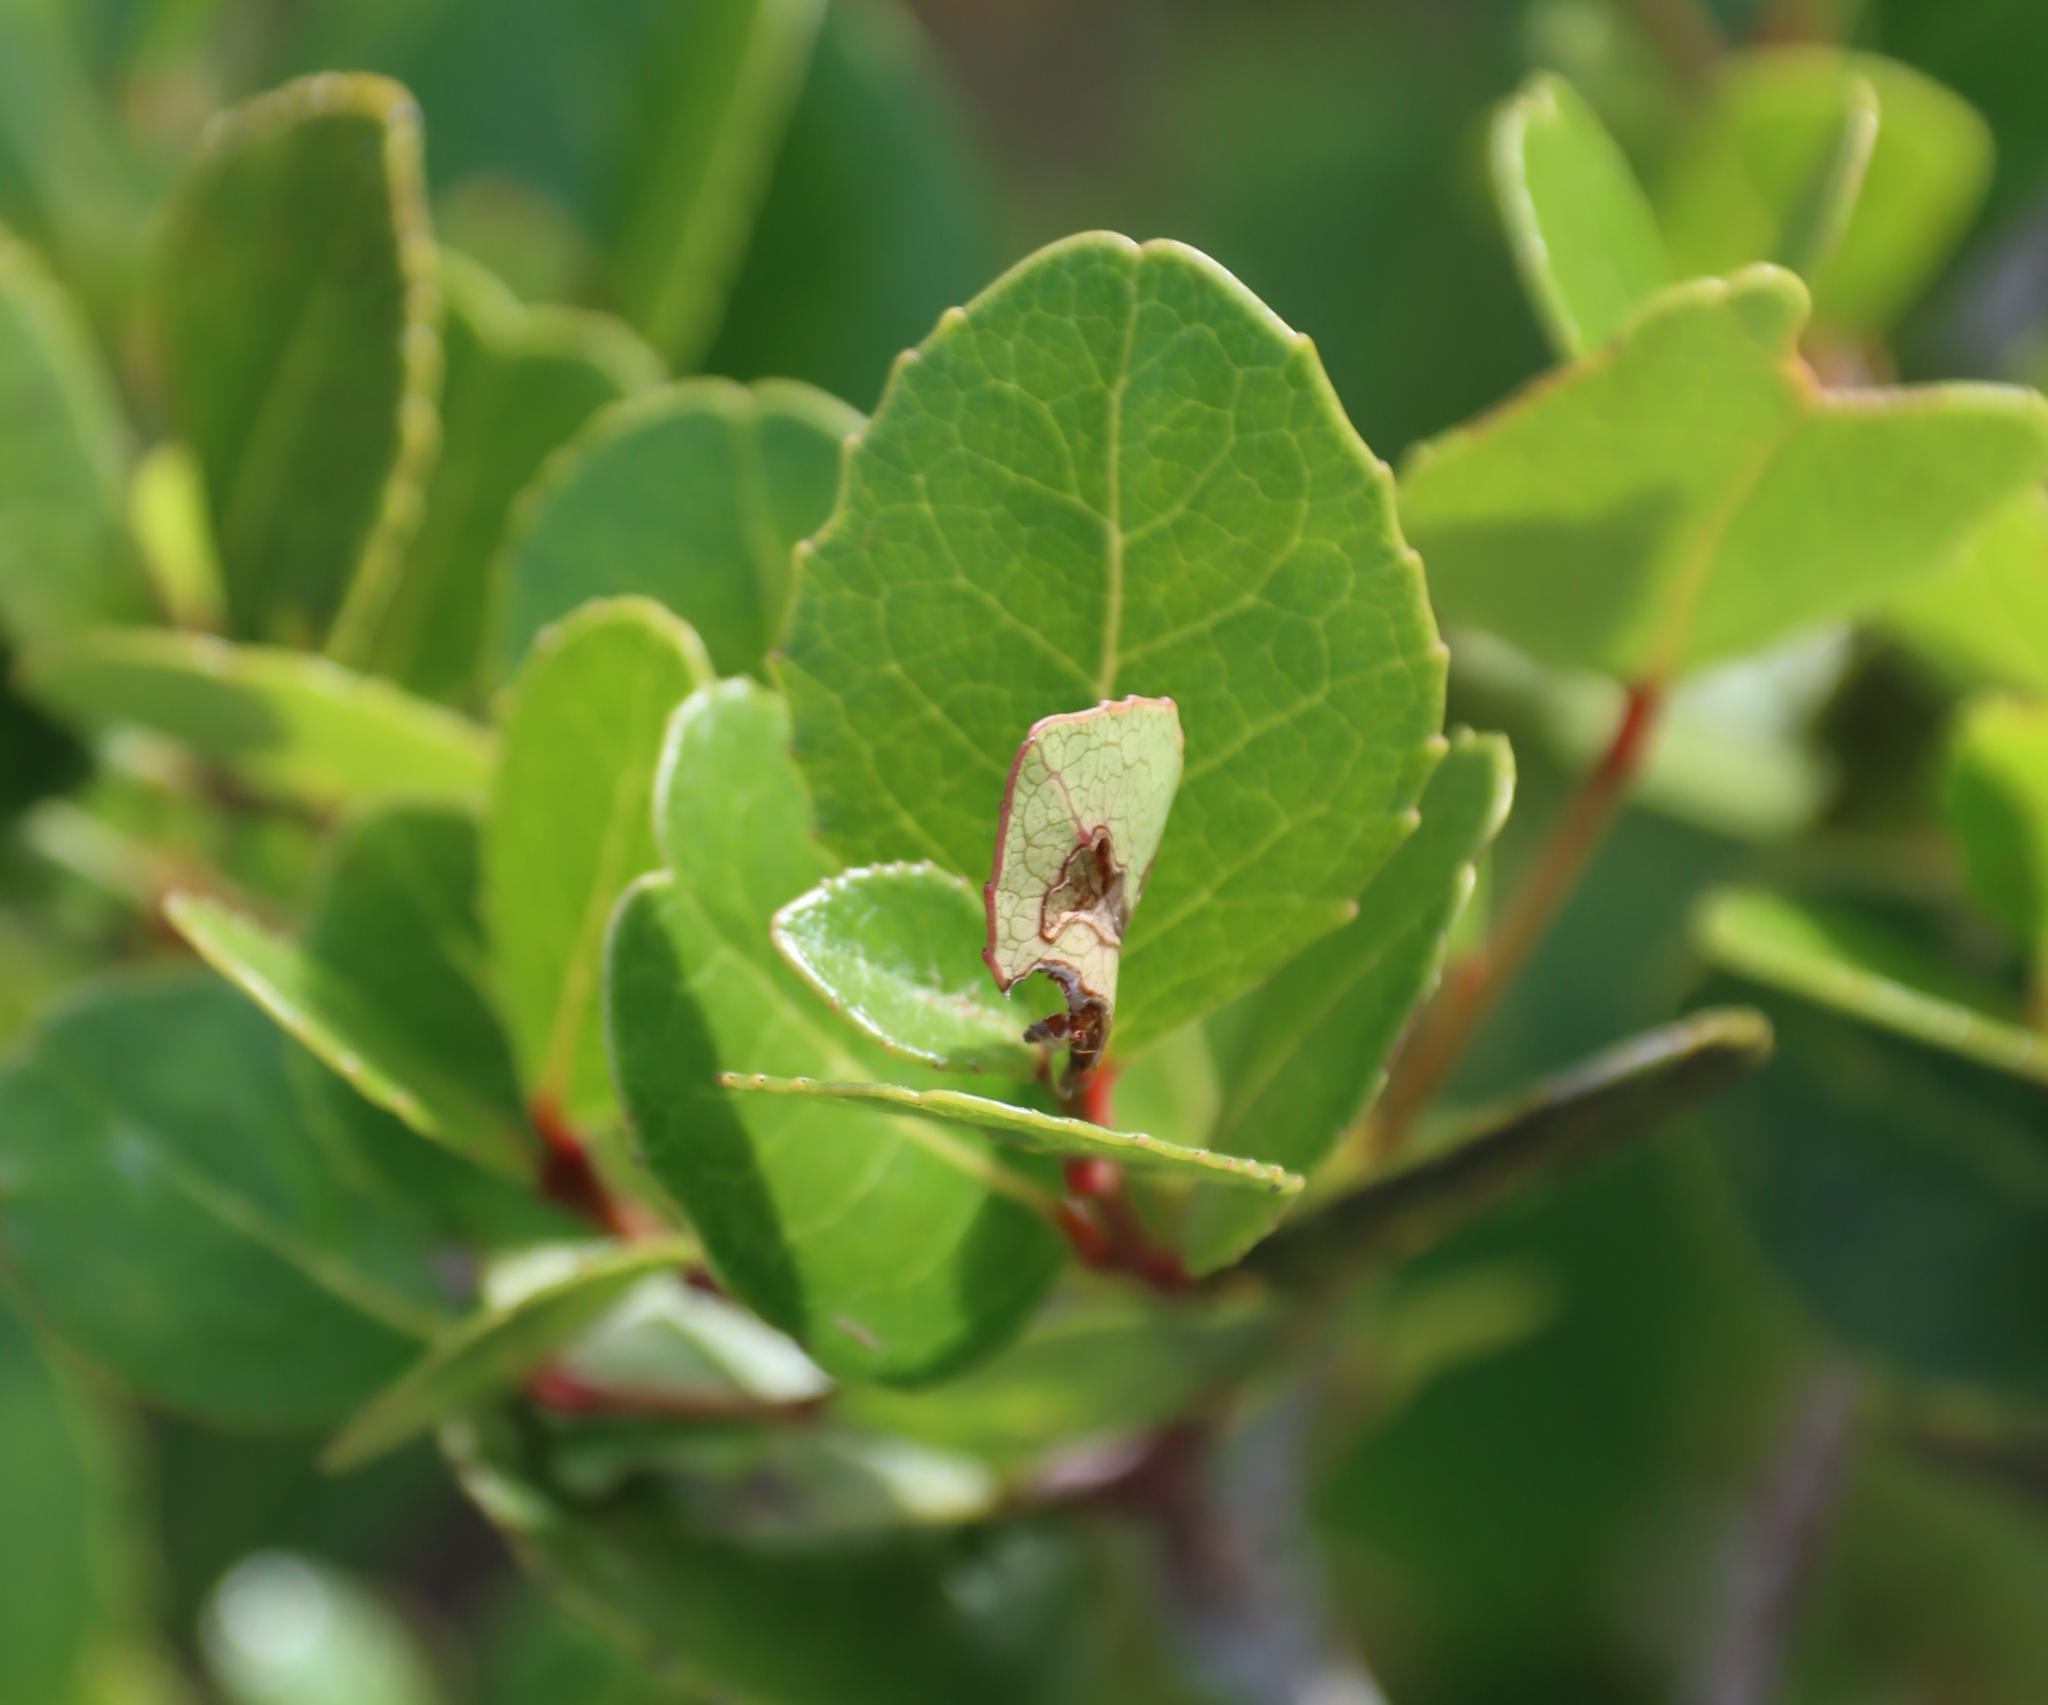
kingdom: Plantae
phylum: Tracheophyta
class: Magnoliopsida
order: Celastrales
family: Celastraceae
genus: Cassine
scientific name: Cassine peragua
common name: Cape saffron
